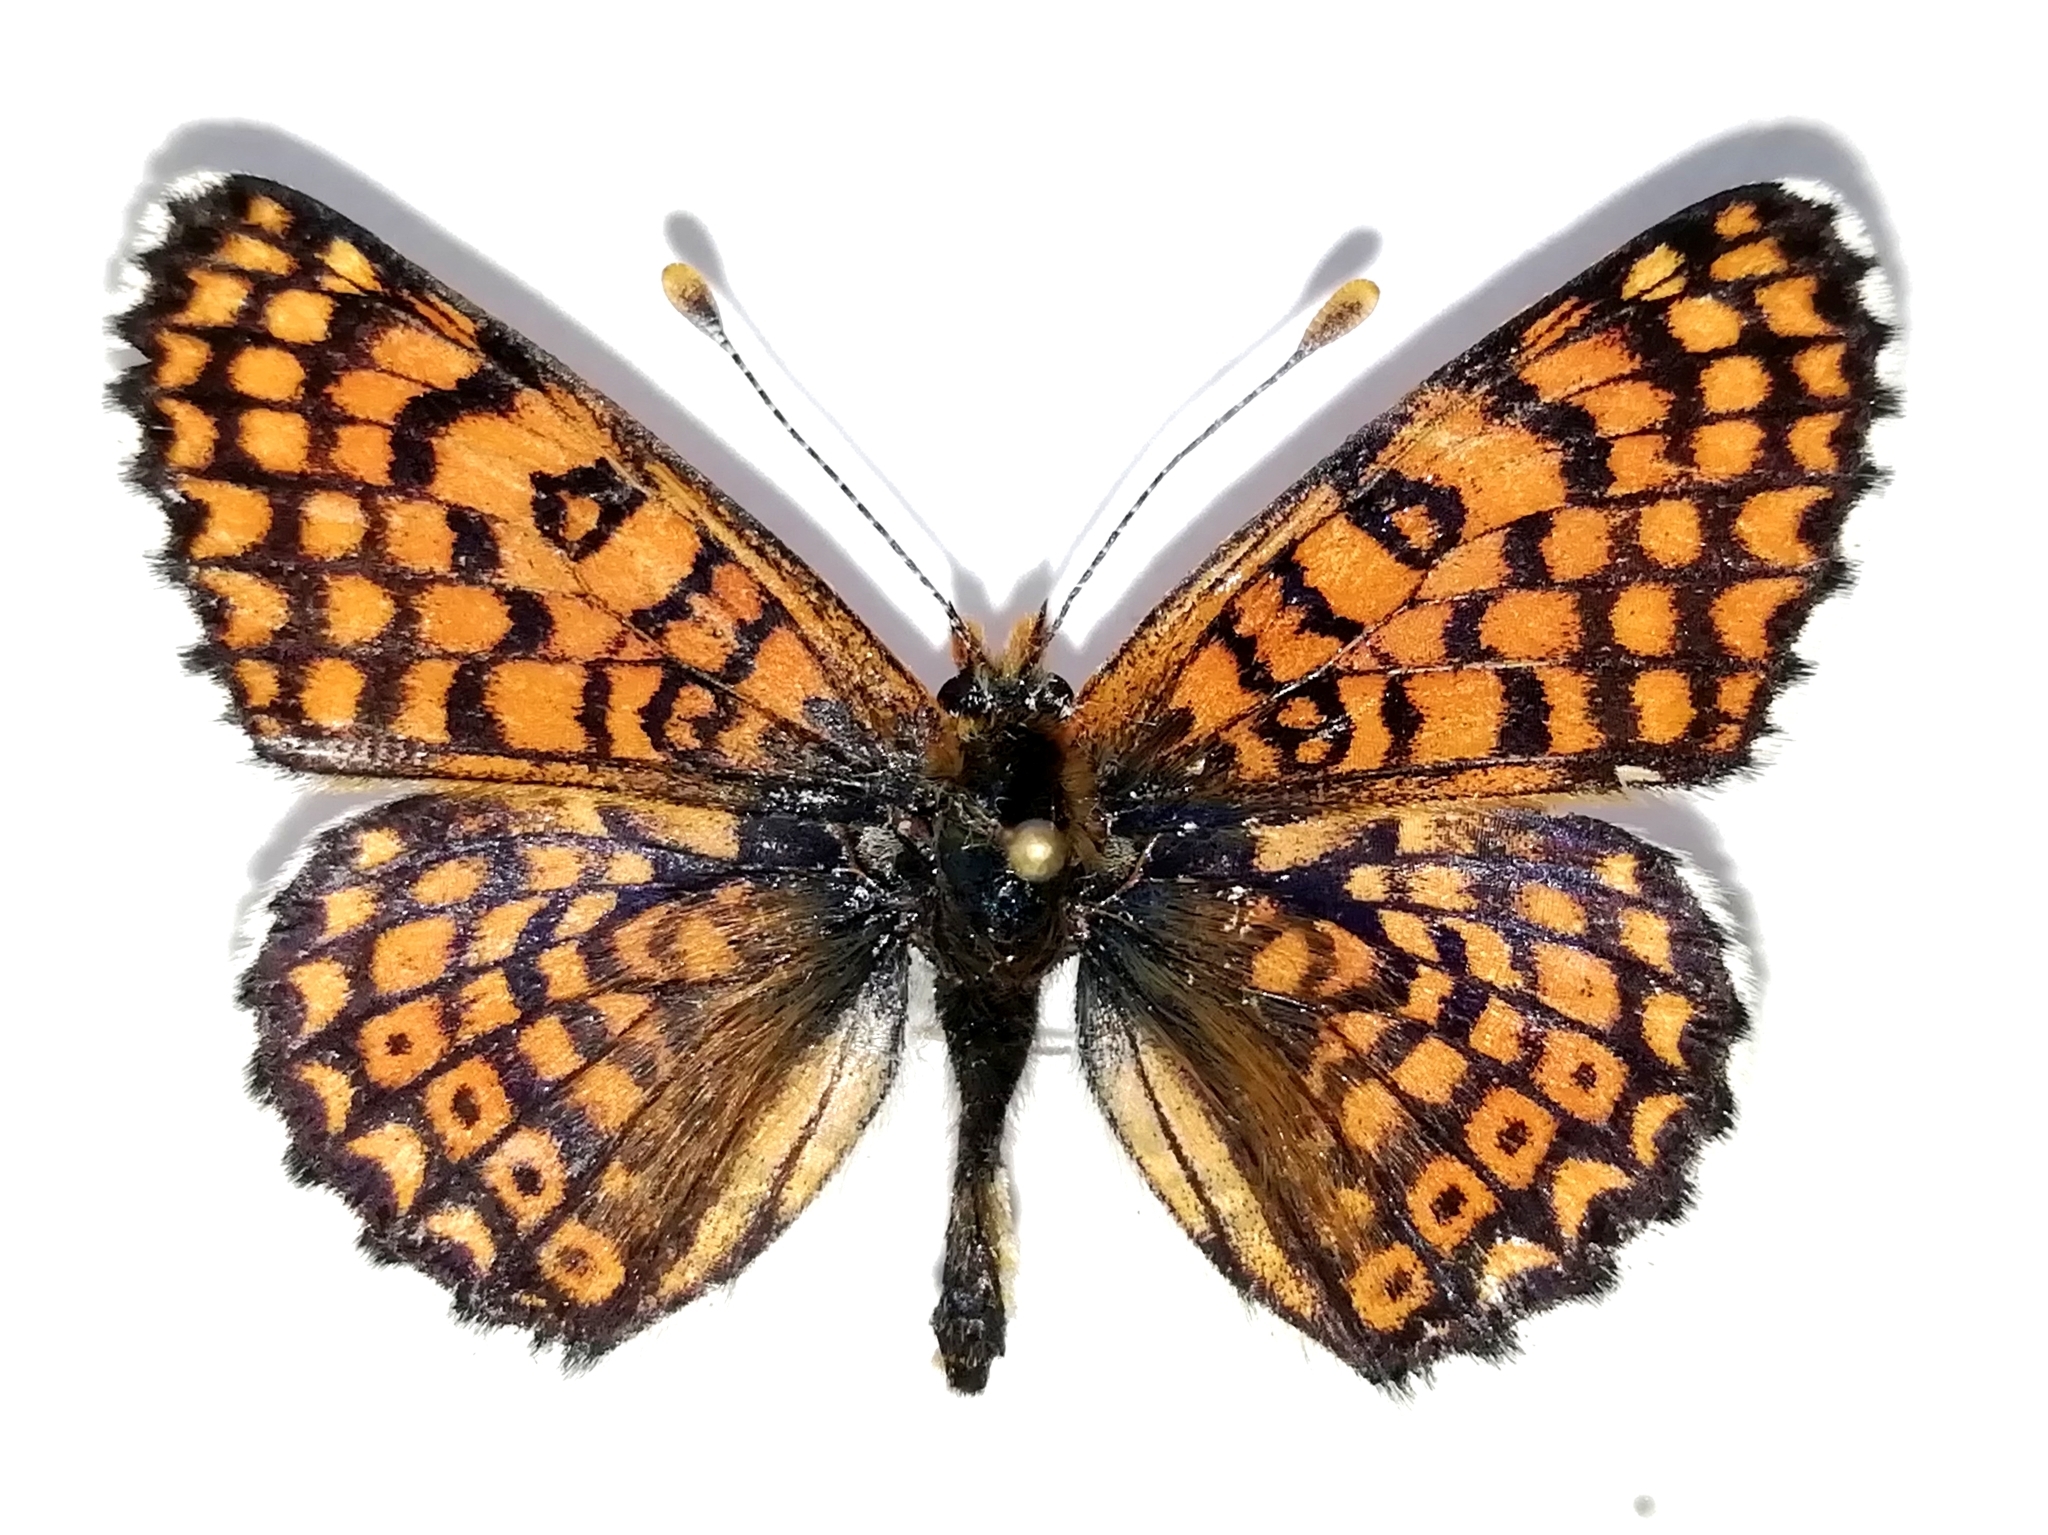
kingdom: Animalia
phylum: Arthropoda
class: Insecta
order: Lepidoptera
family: Nymphalidae
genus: Melitaea
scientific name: Melitaea cinxia
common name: Glanville fritillary
